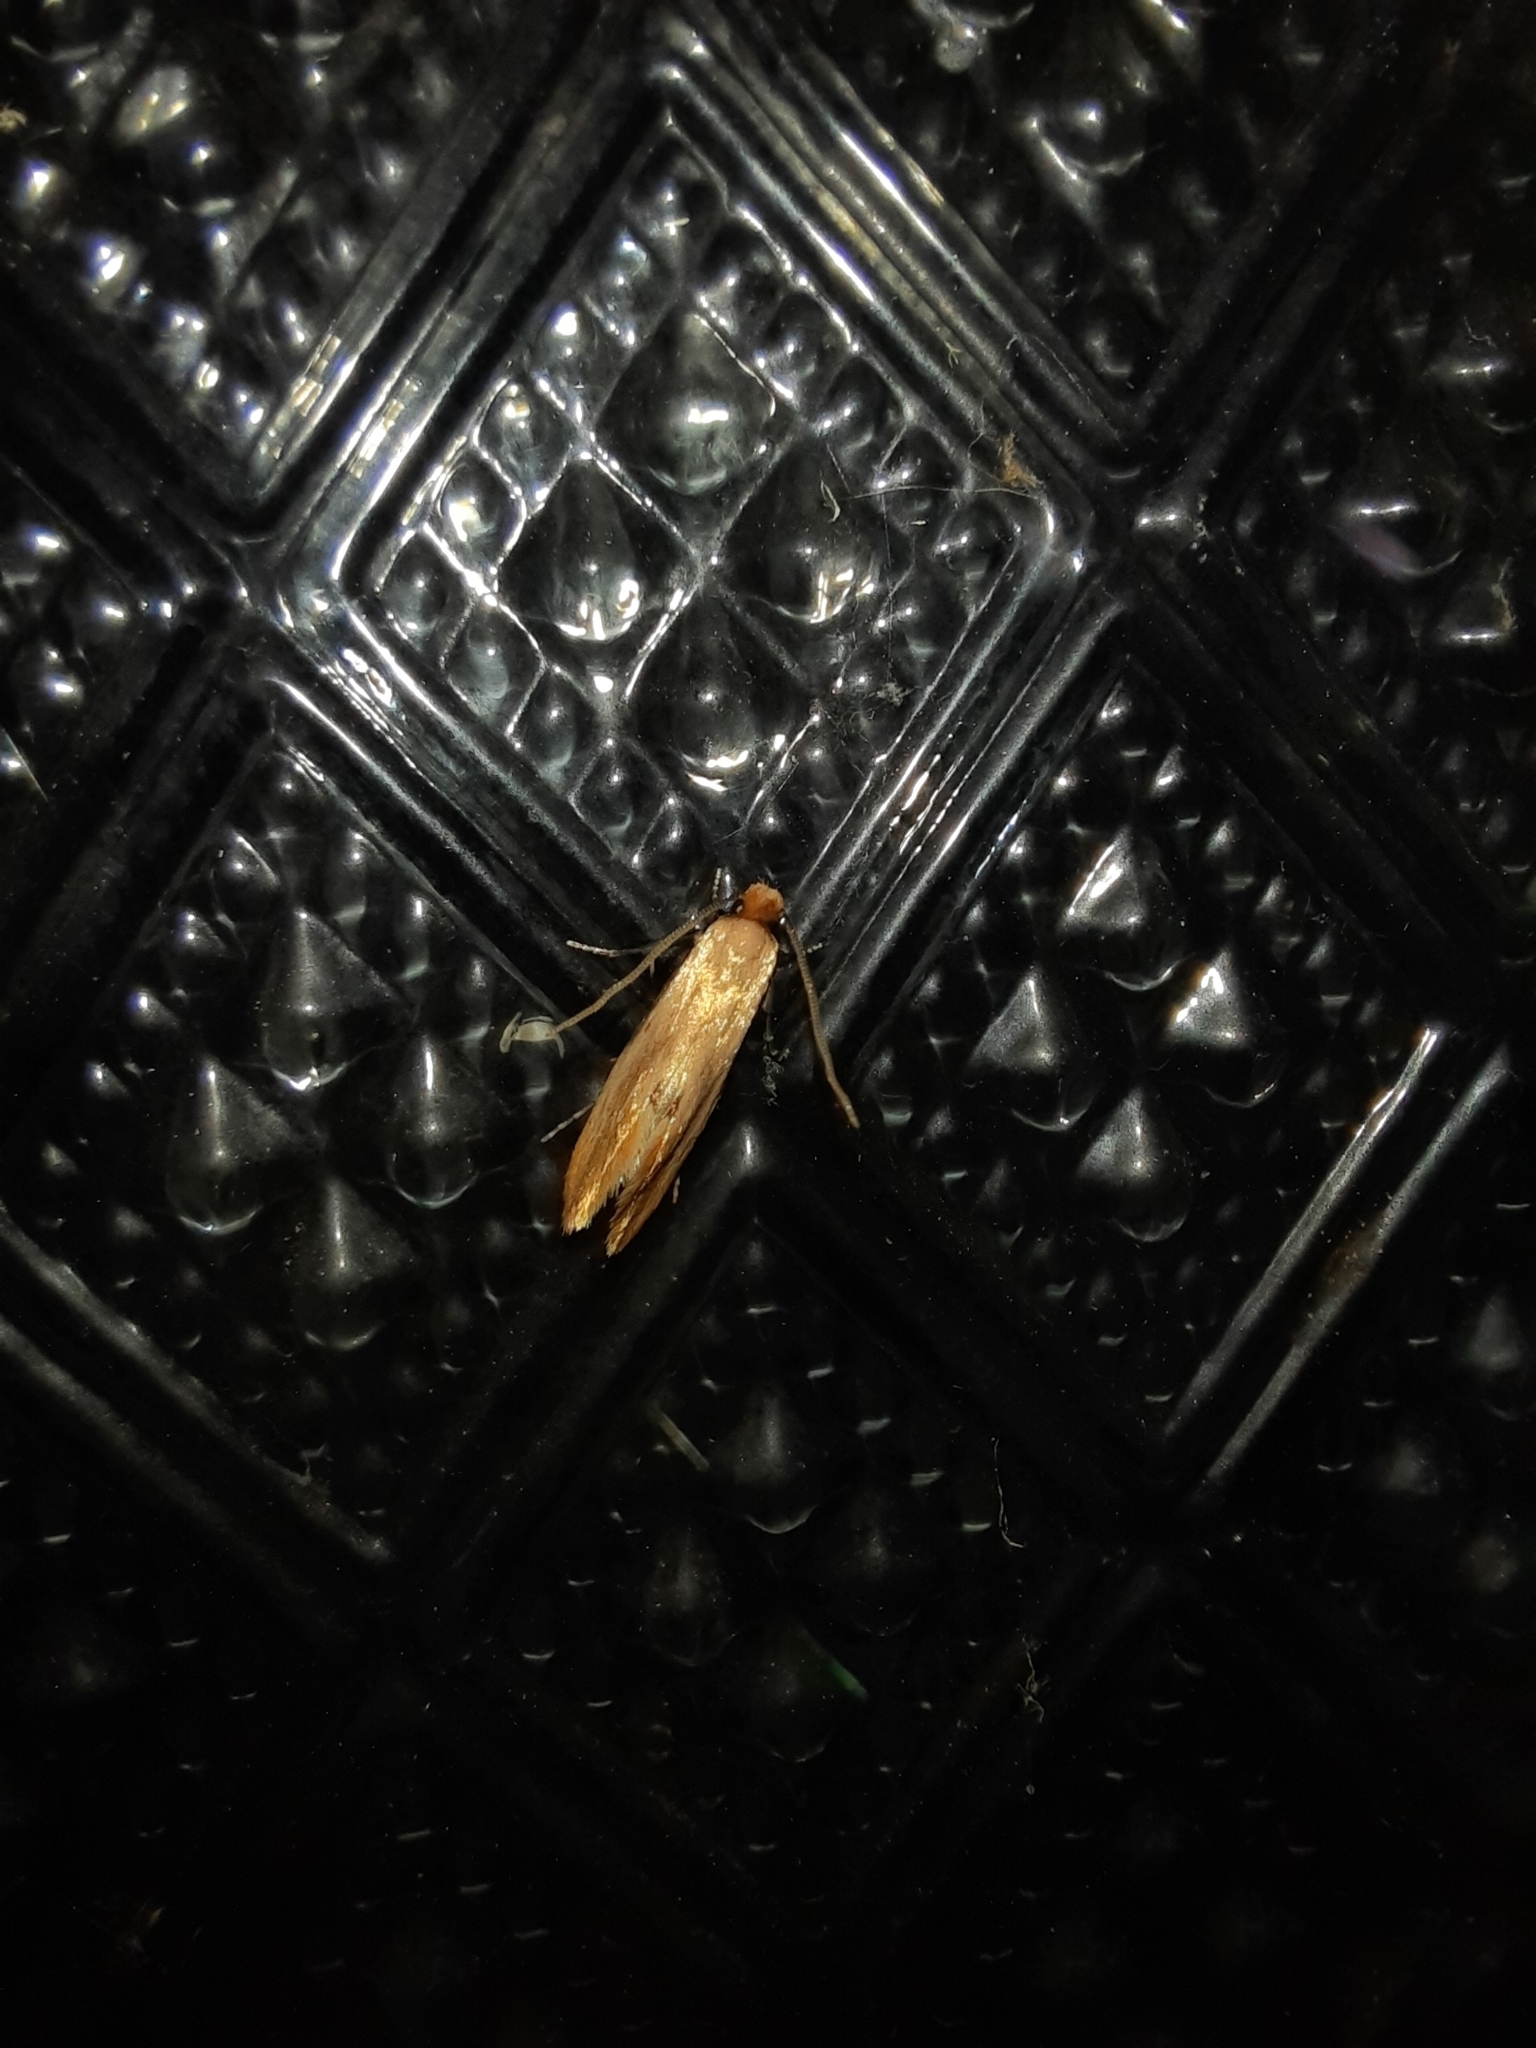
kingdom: Animalia
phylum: Arthropoda
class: Insecta
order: Lepidoptera
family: Tineidae
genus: Tinea
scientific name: Tinea semifulvella
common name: Fulvous clothes
